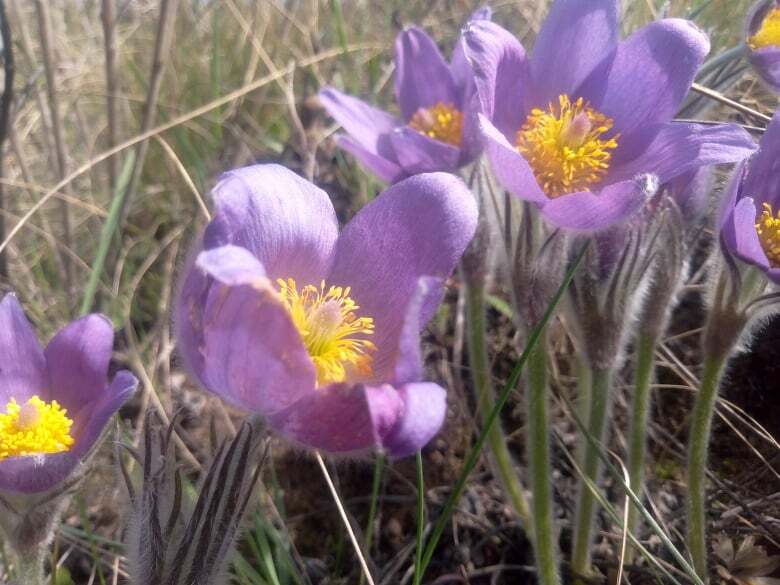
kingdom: Plantae
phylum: Tracheophyta
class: Magnoliopsida
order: Ranunculales
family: Ranunculaceae
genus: Pulsatilla
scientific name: Pulsatilla patens
